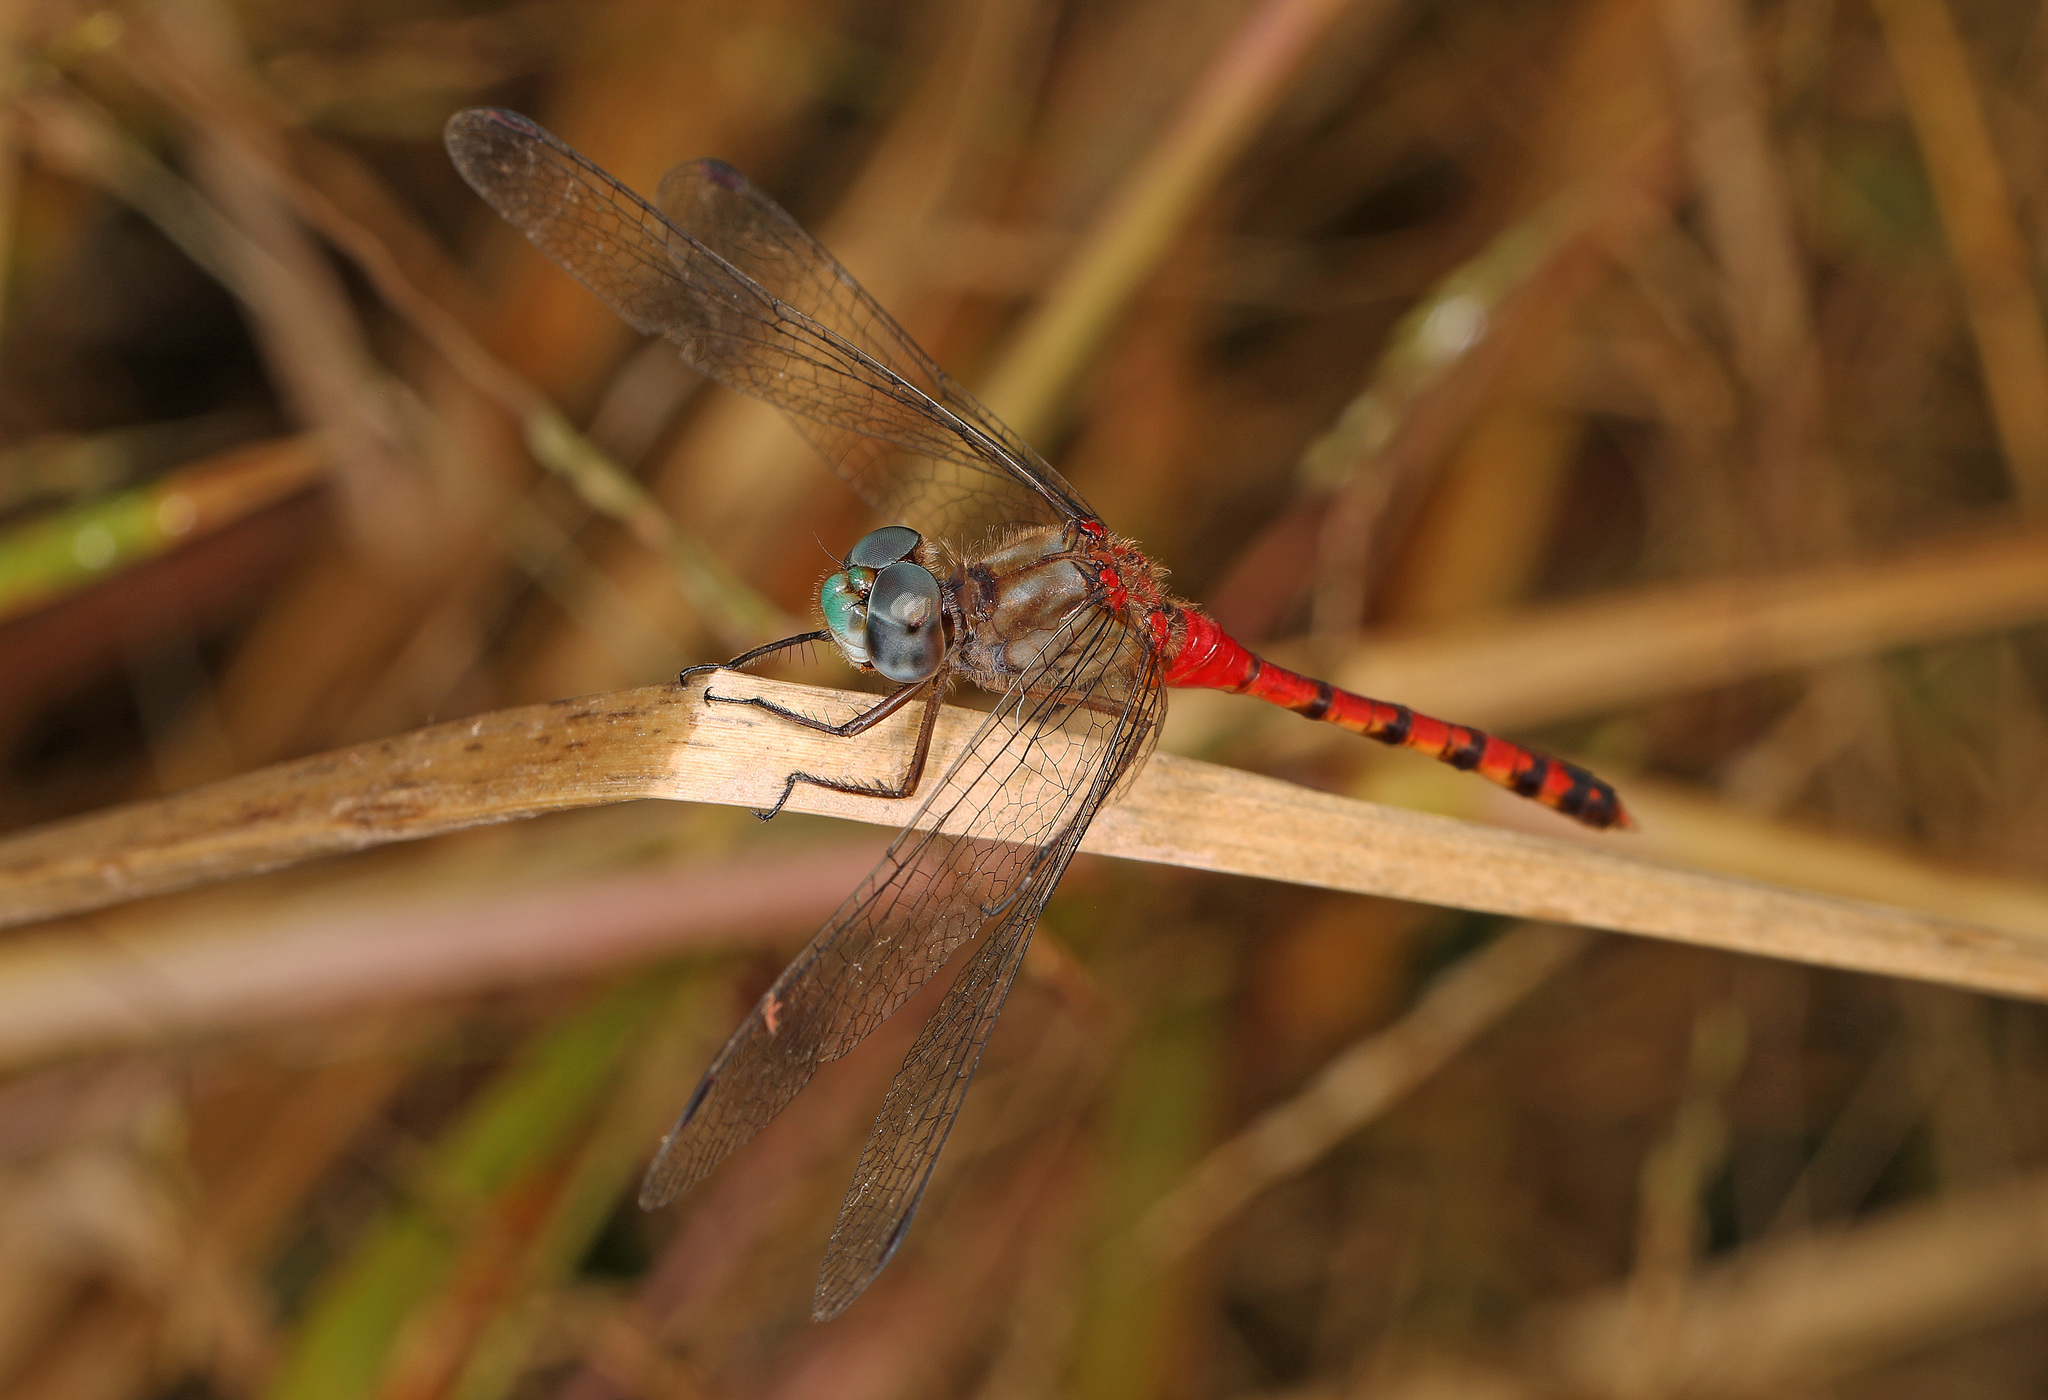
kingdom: Animalia
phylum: Arthropoda
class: Insecta
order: Odonata
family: Libellulidae
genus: Sympetrum
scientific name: Sympetrum ambiguum
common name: Blue-faced meadowhawk
